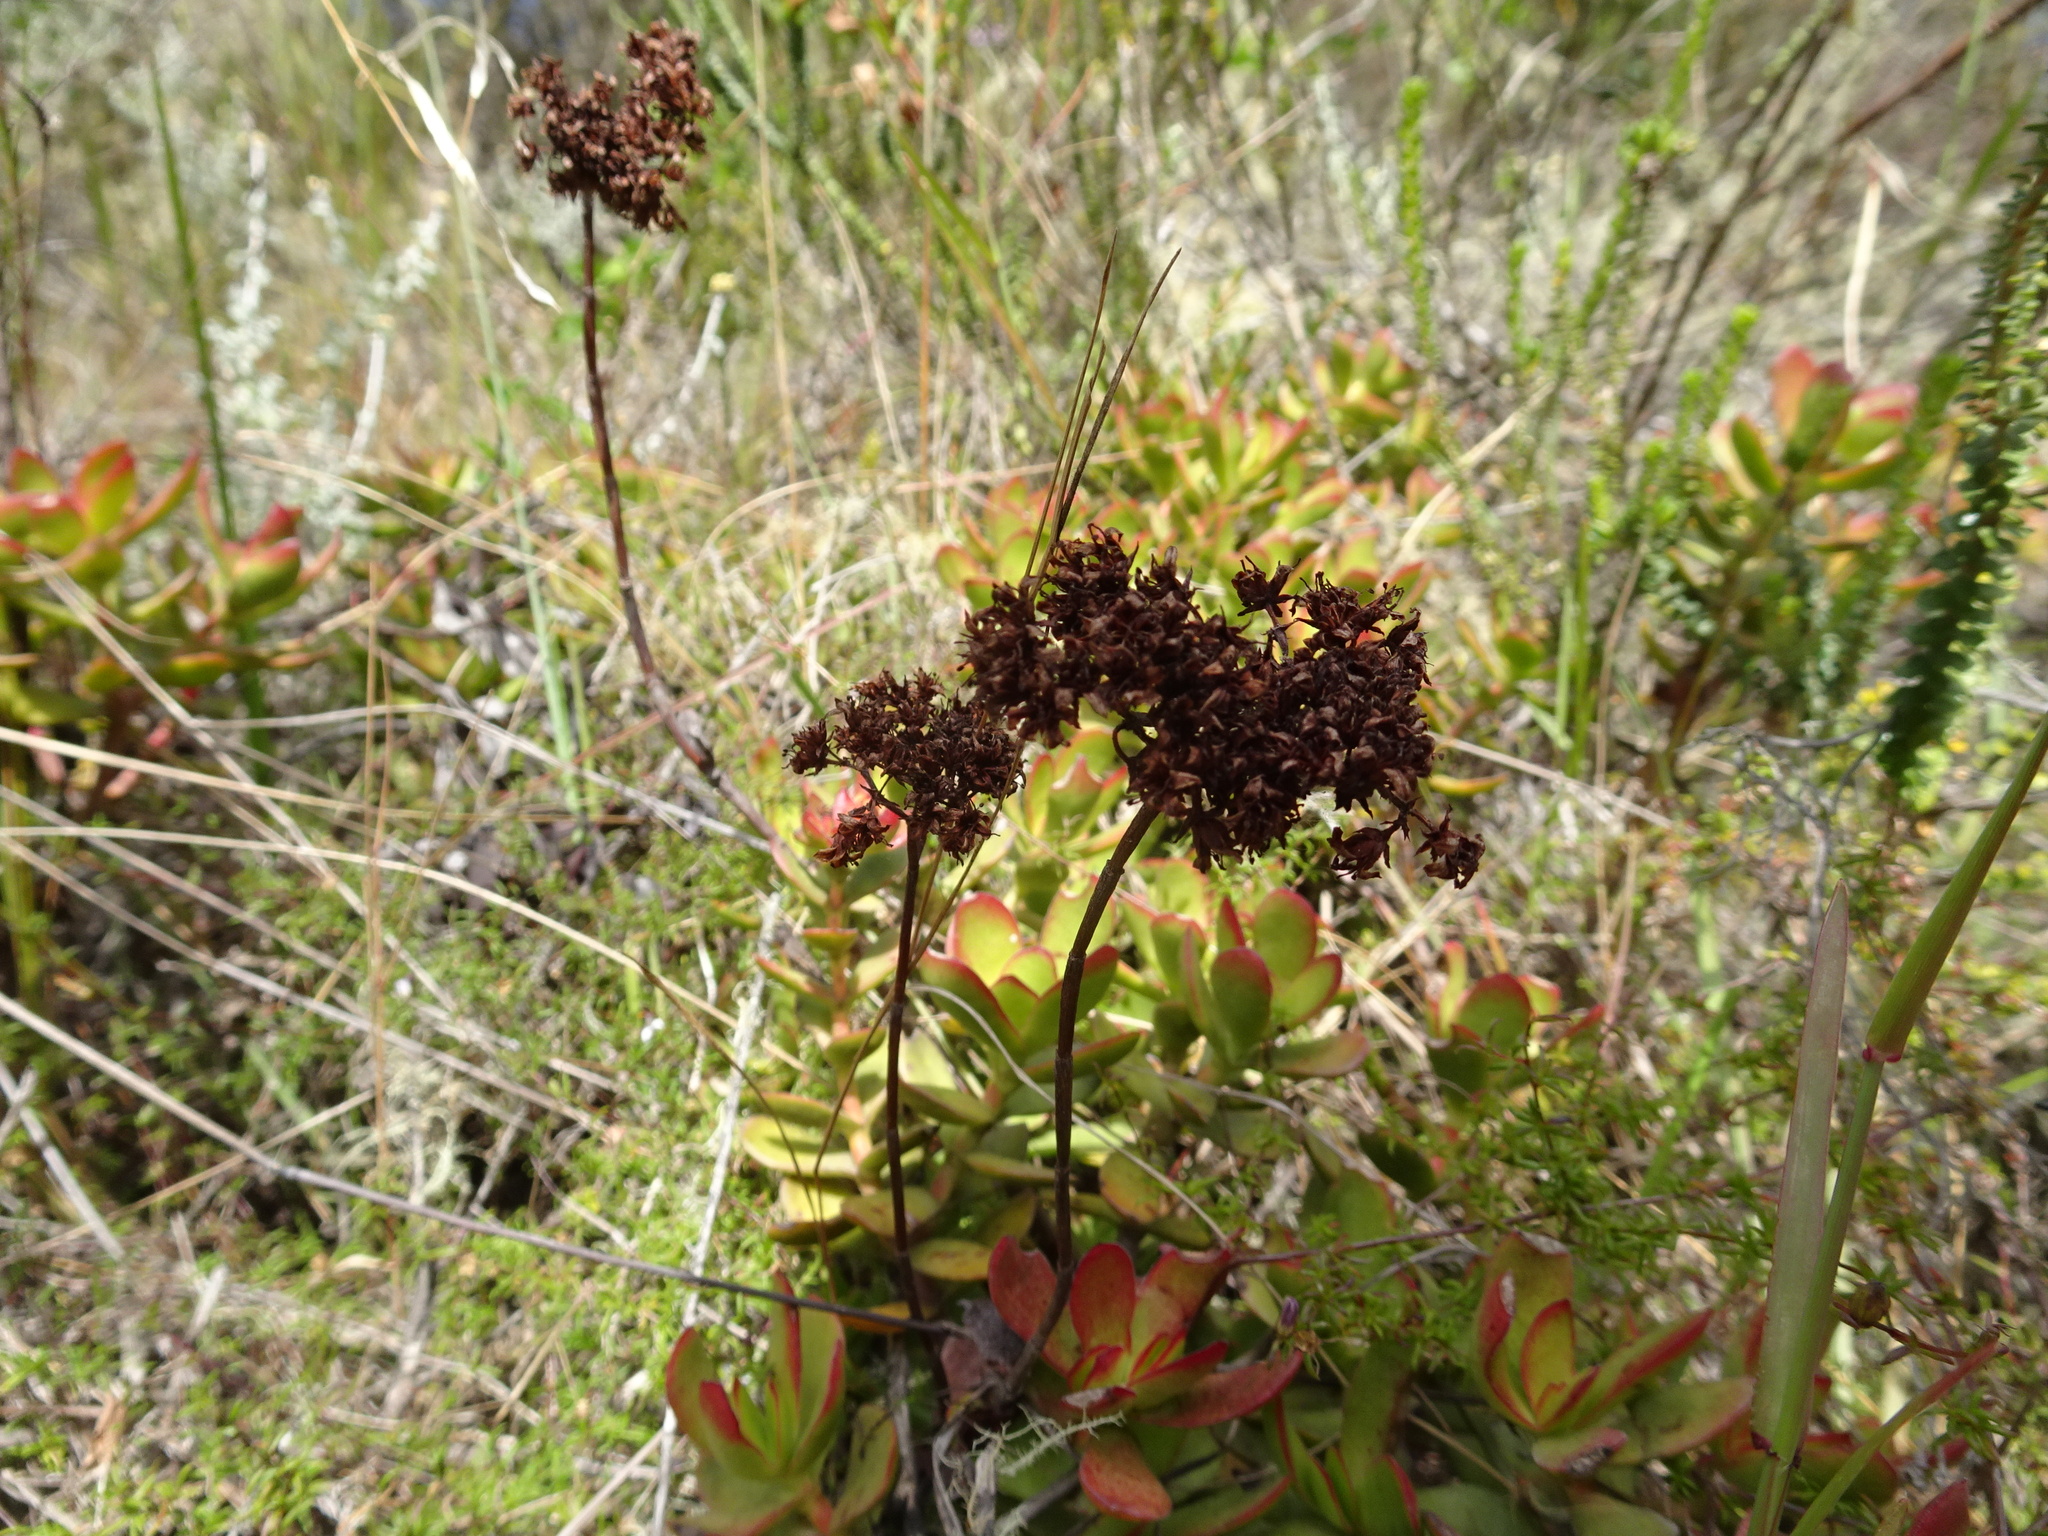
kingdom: Plantae
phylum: Tracheophyta
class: Magnoliopsida
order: Saxifragales
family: Crassulaceae
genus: Crassula
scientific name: Crassula rubricaulis
